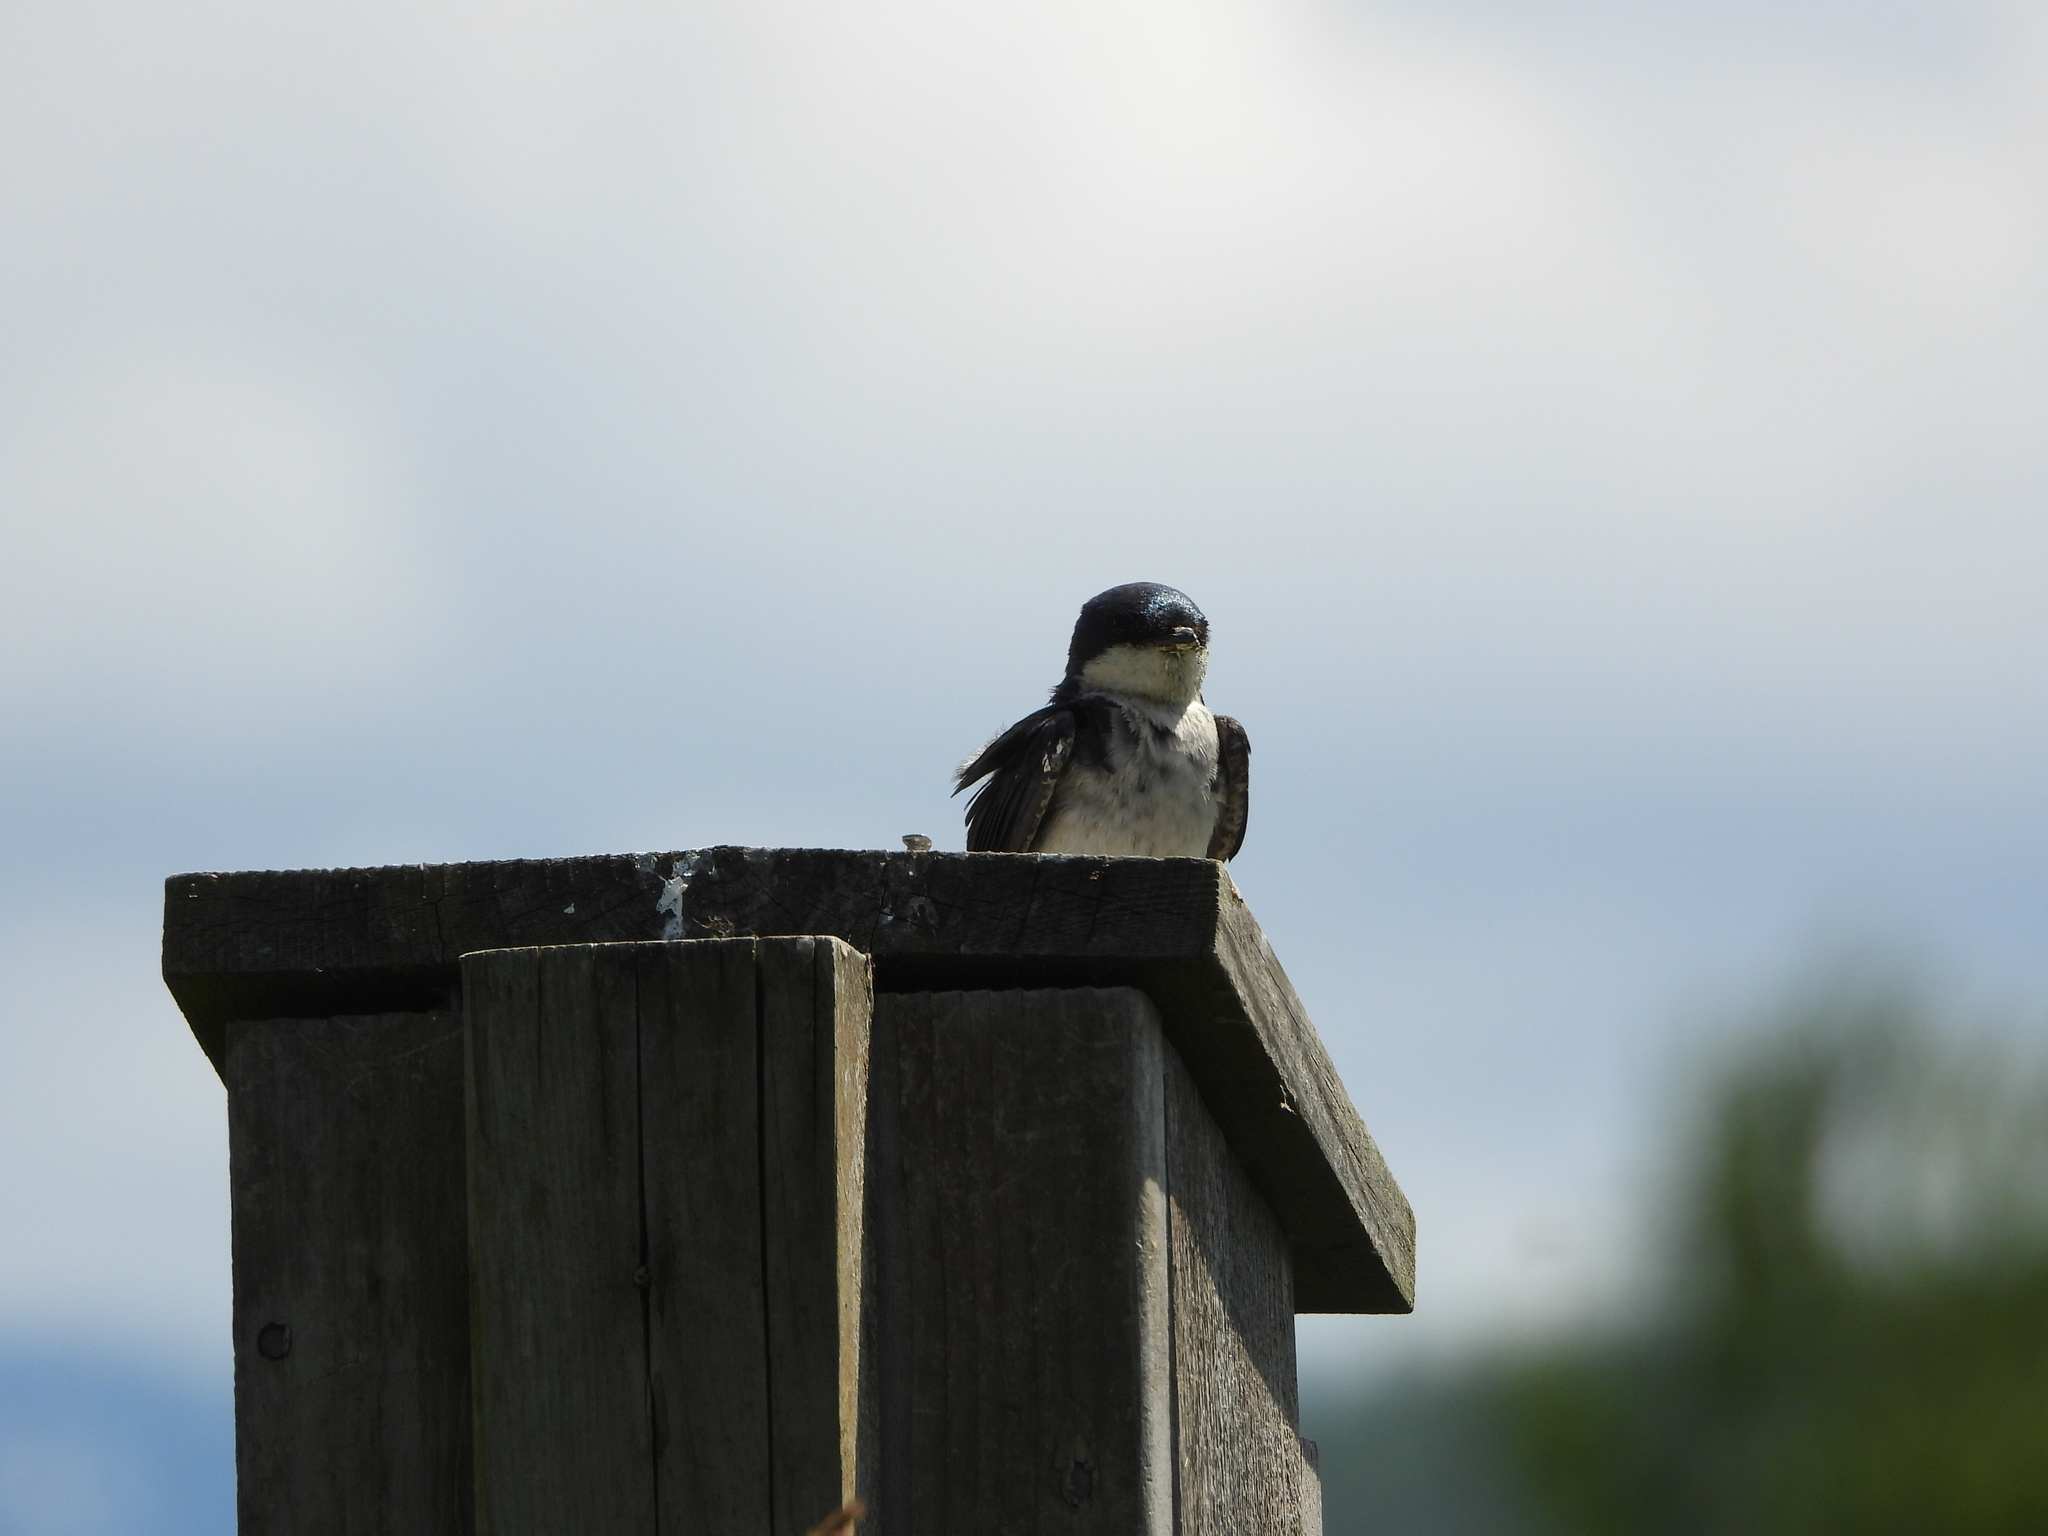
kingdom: Animalia
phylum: Chordata
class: Aves
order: Passeriformes
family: Hirundinidae
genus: Tachycineta
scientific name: Tachycineta bicolor
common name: Tree swallow
